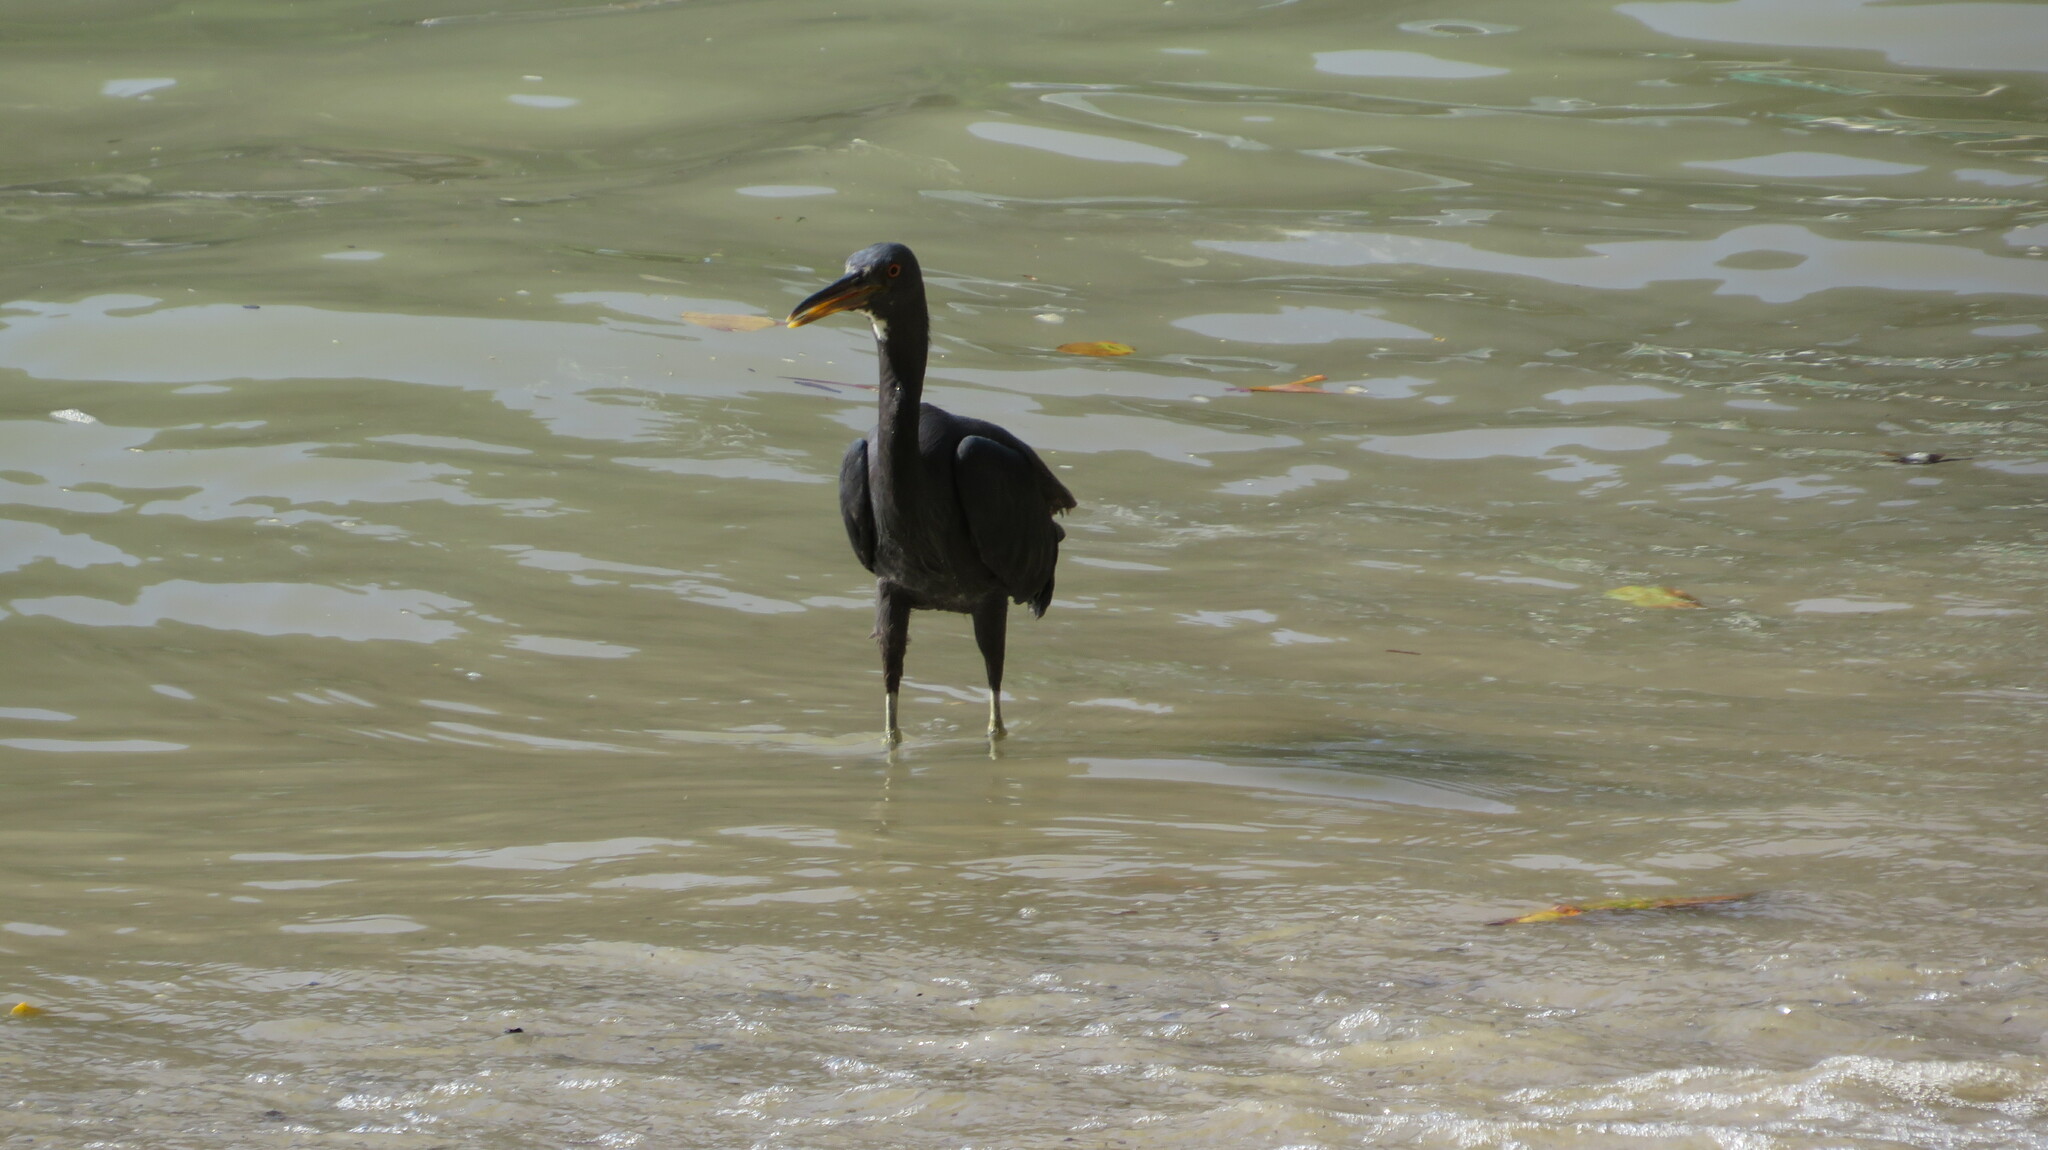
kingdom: Animalia
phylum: Chordata
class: Aves
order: Pelecaniformes
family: Ardeidae
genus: Egretta
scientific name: Egretta sacra
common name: Pacific reef heron
